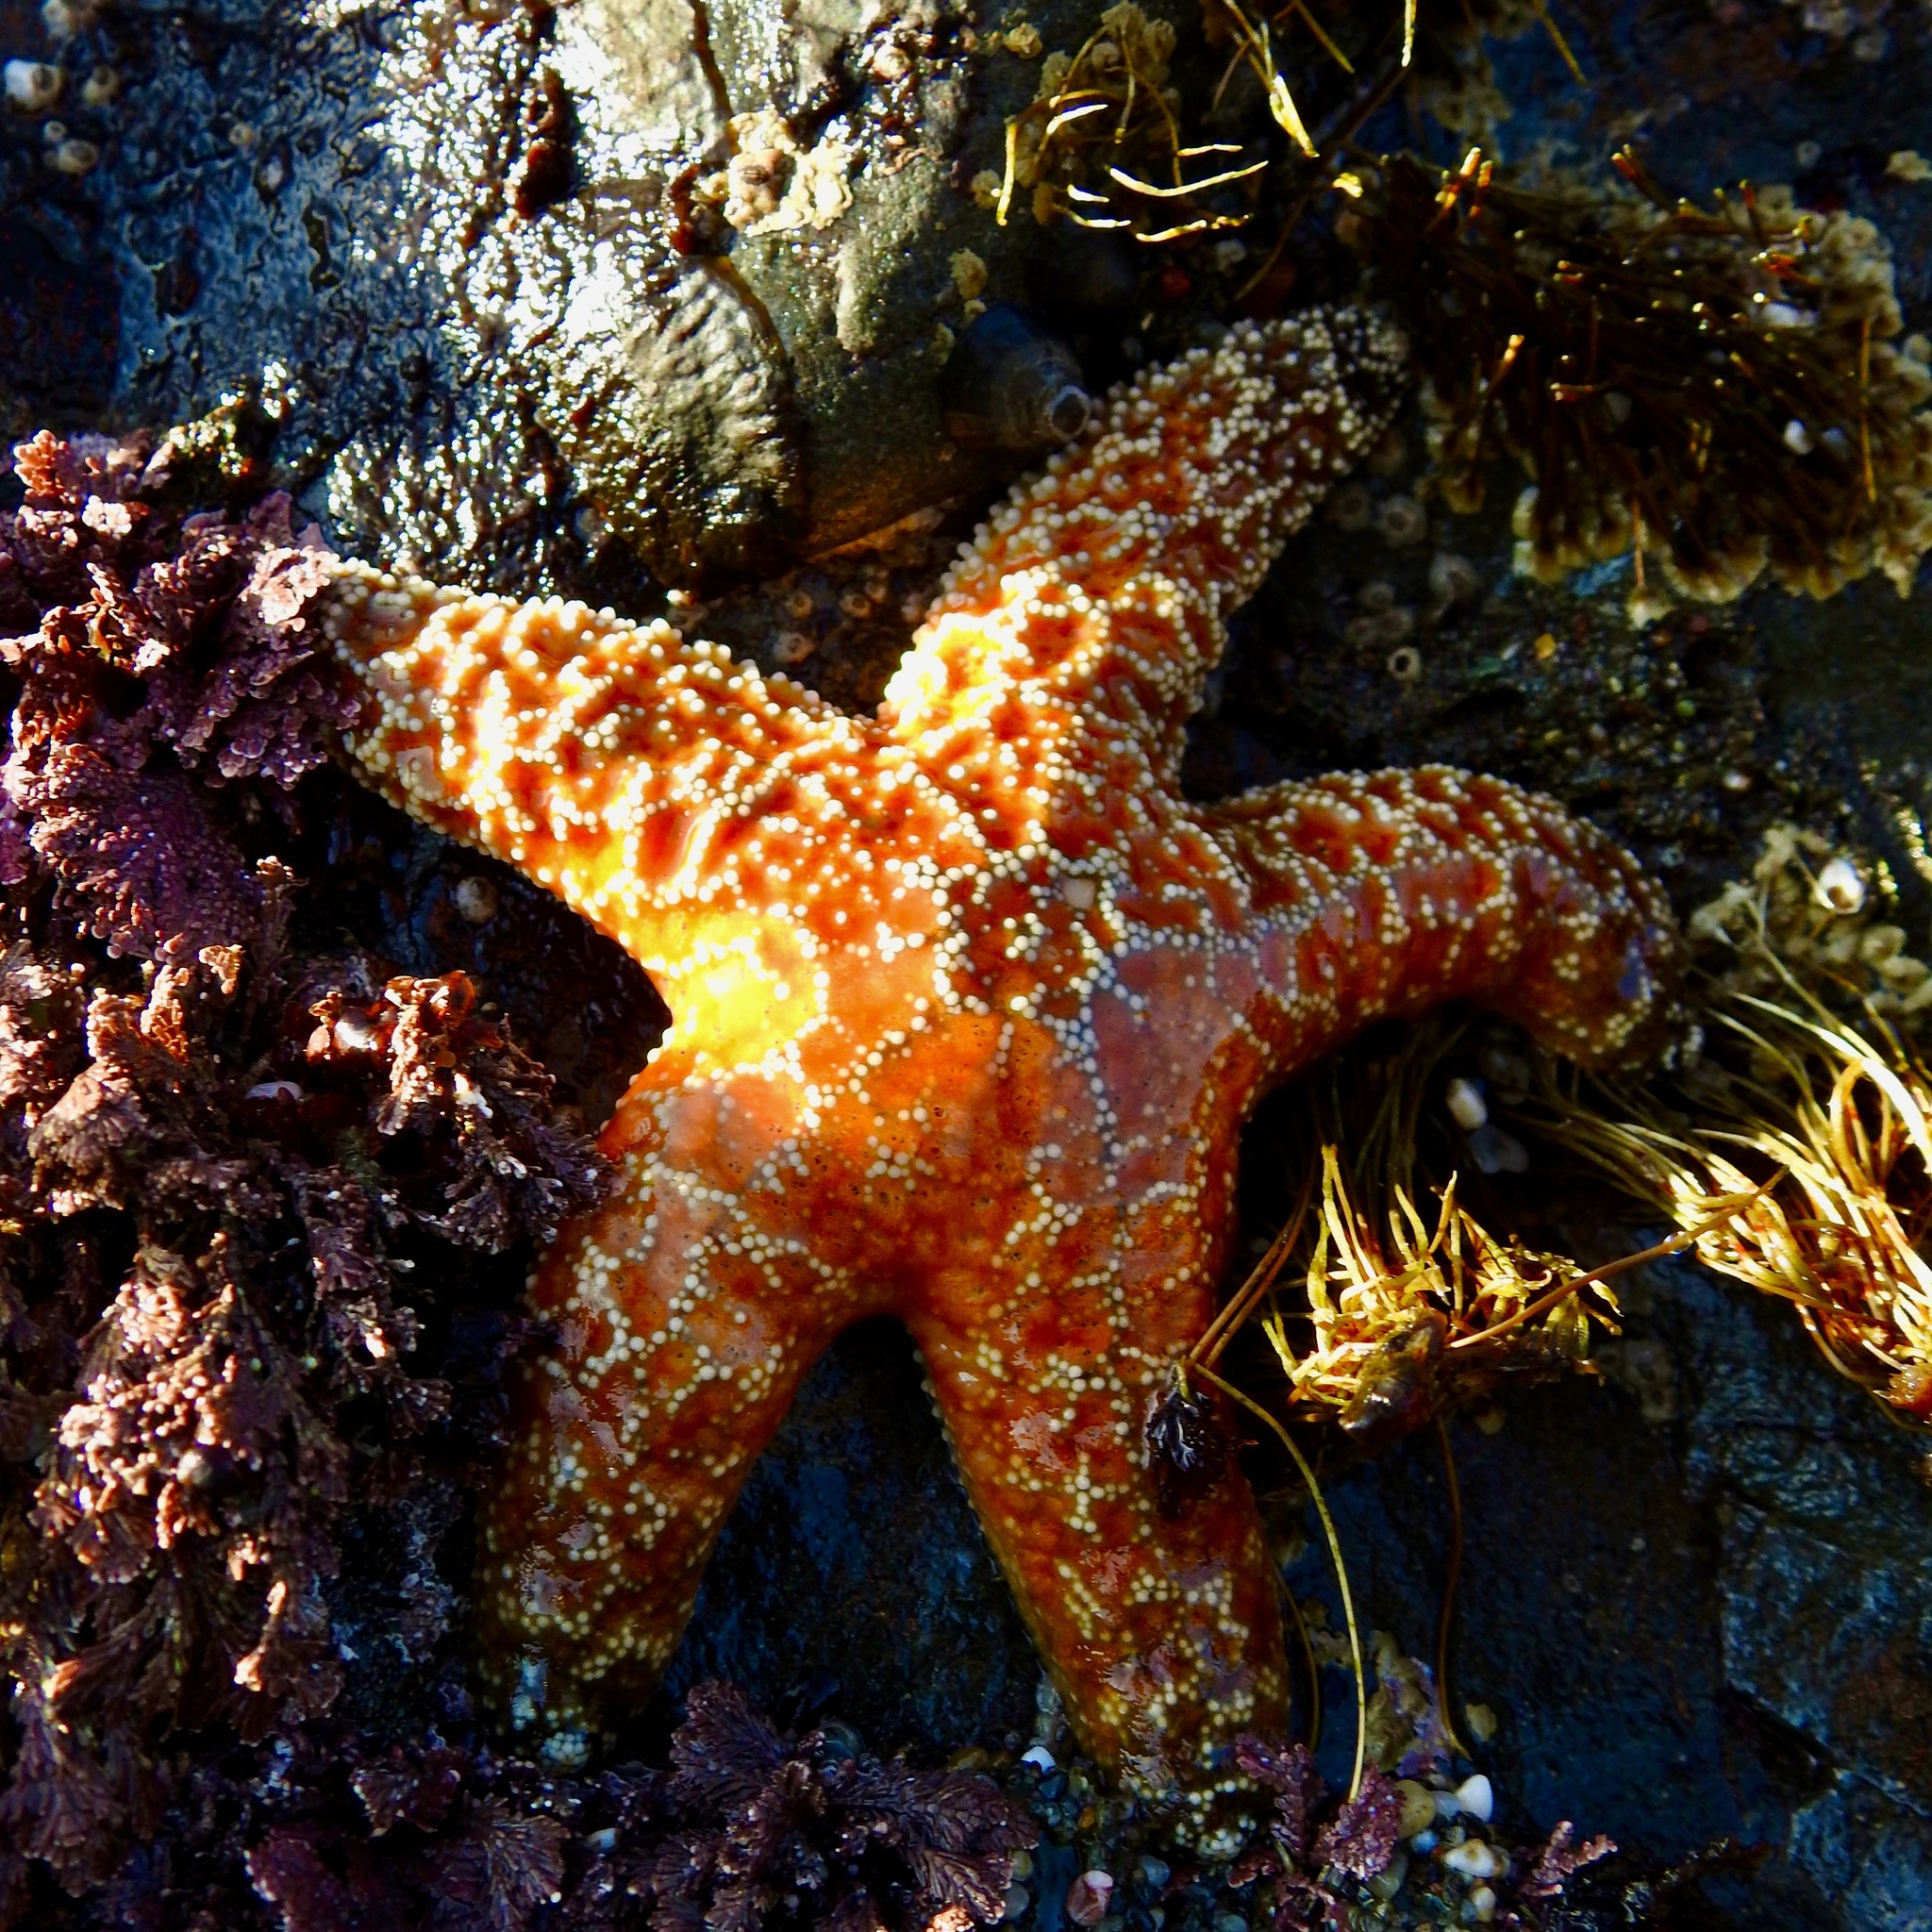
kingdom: Animalia
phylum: Echinodermata
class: Asteroidea
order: Forcipulatida
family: Asteriidae
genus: Pisaster
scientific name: Pisaster ochraceus
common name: Ochre stars
